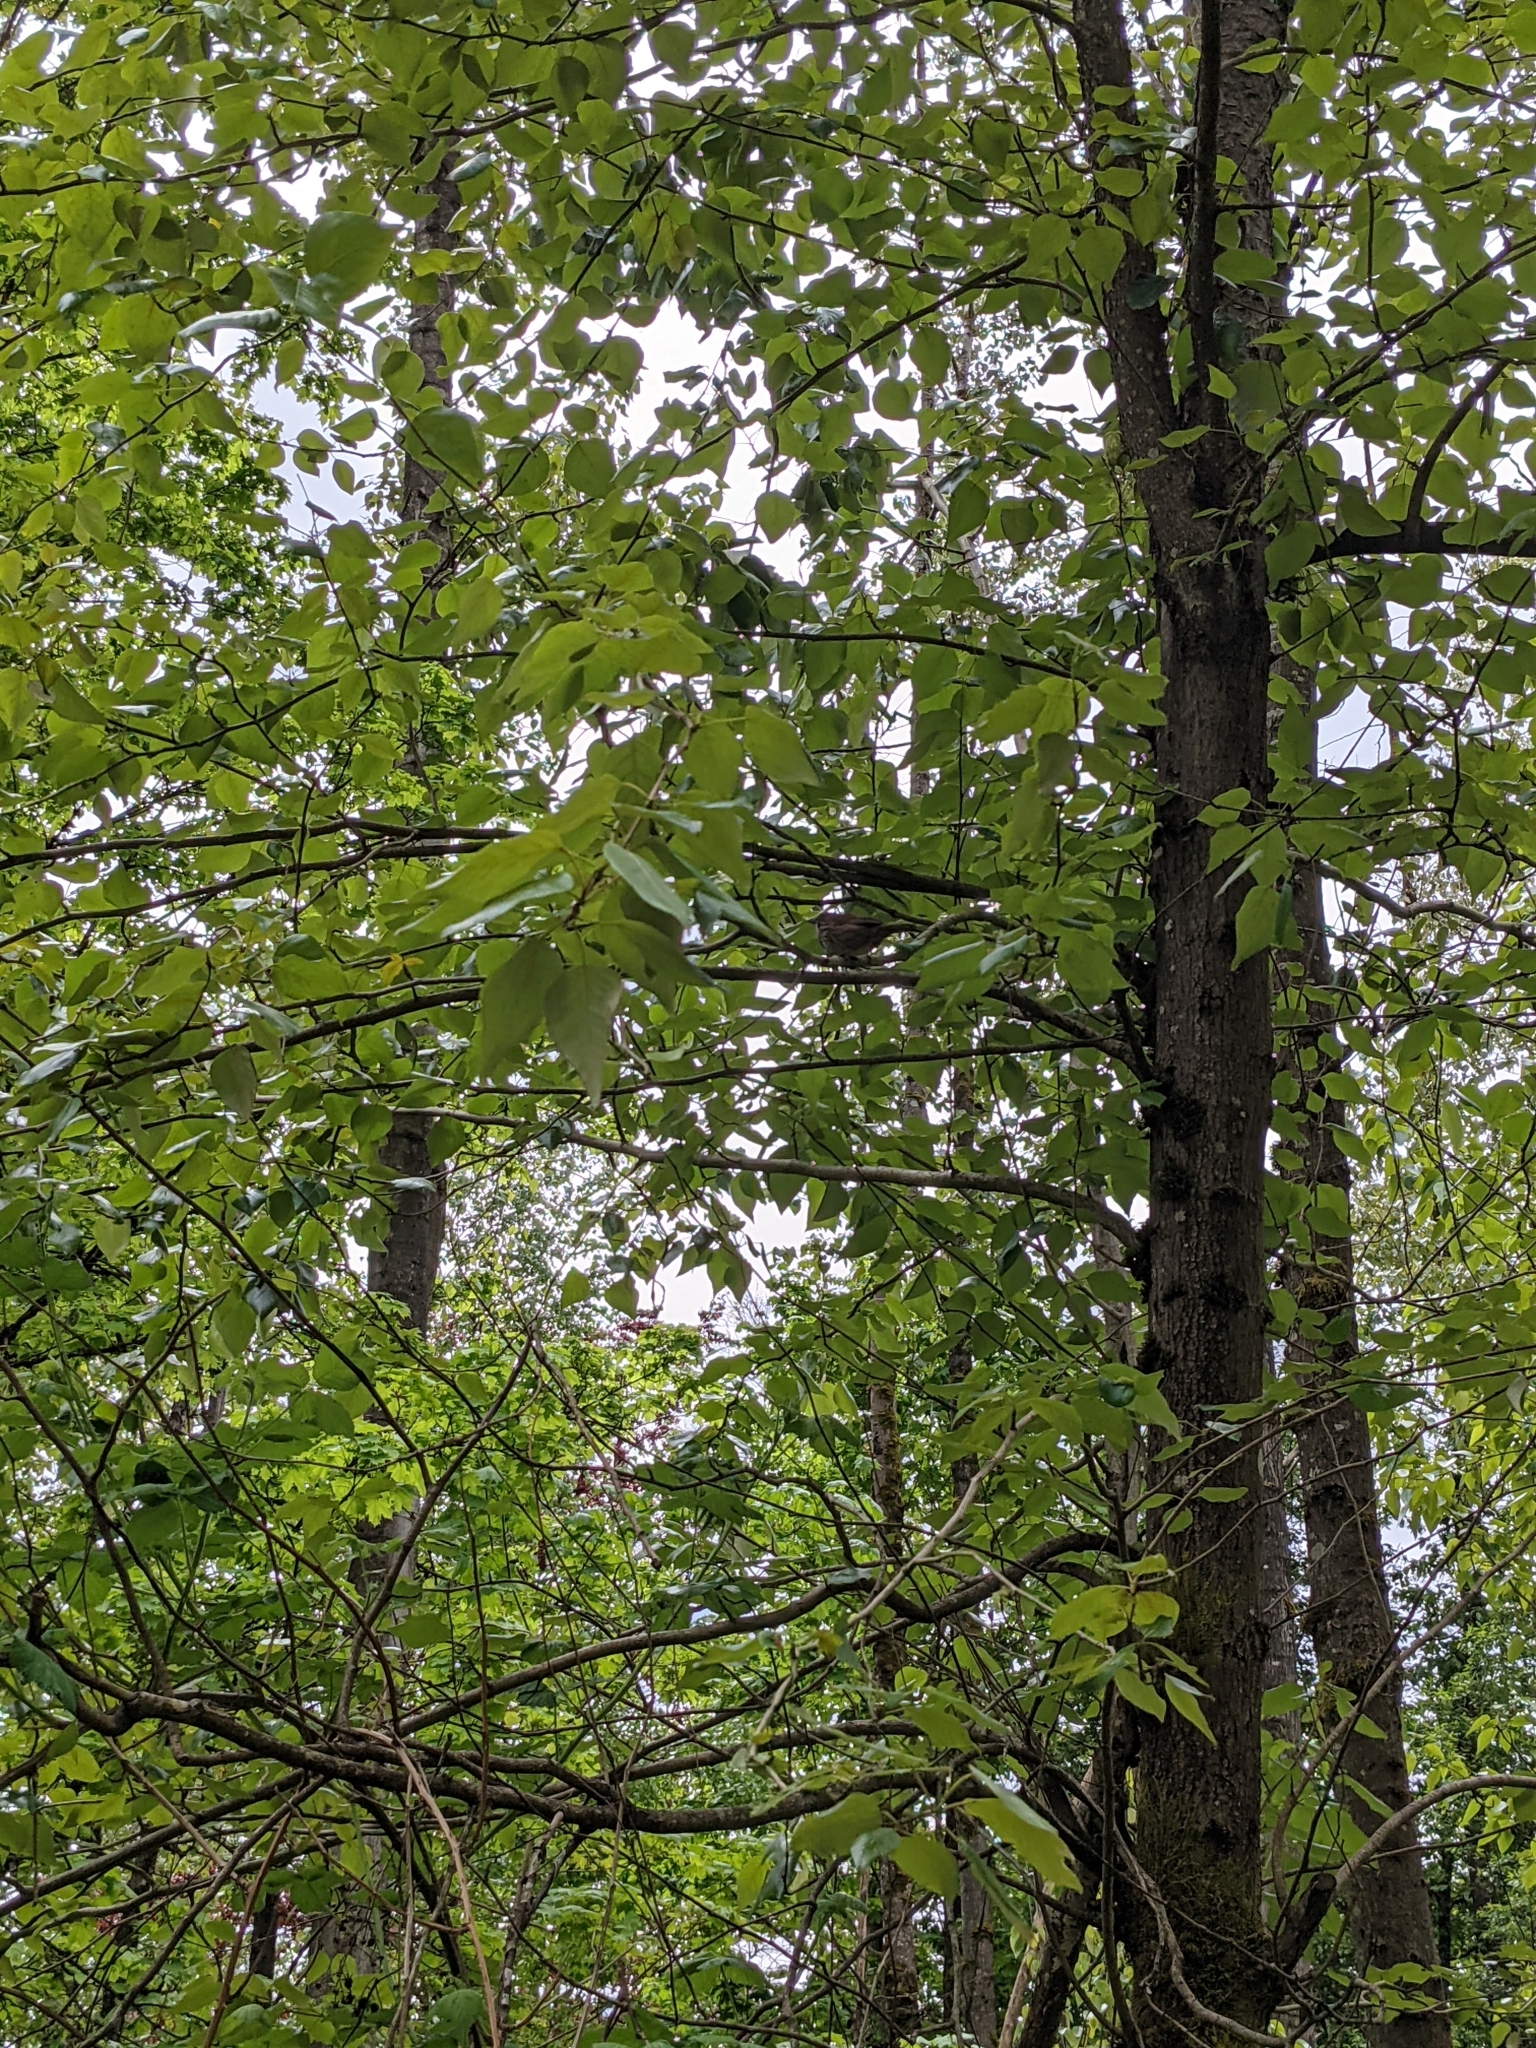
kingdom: Animalia
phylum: Chordata
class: Aves
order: Passeriformes
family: Passerellidae
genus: Melospiza
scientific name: Melospiza melodia
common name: Song sparrow
